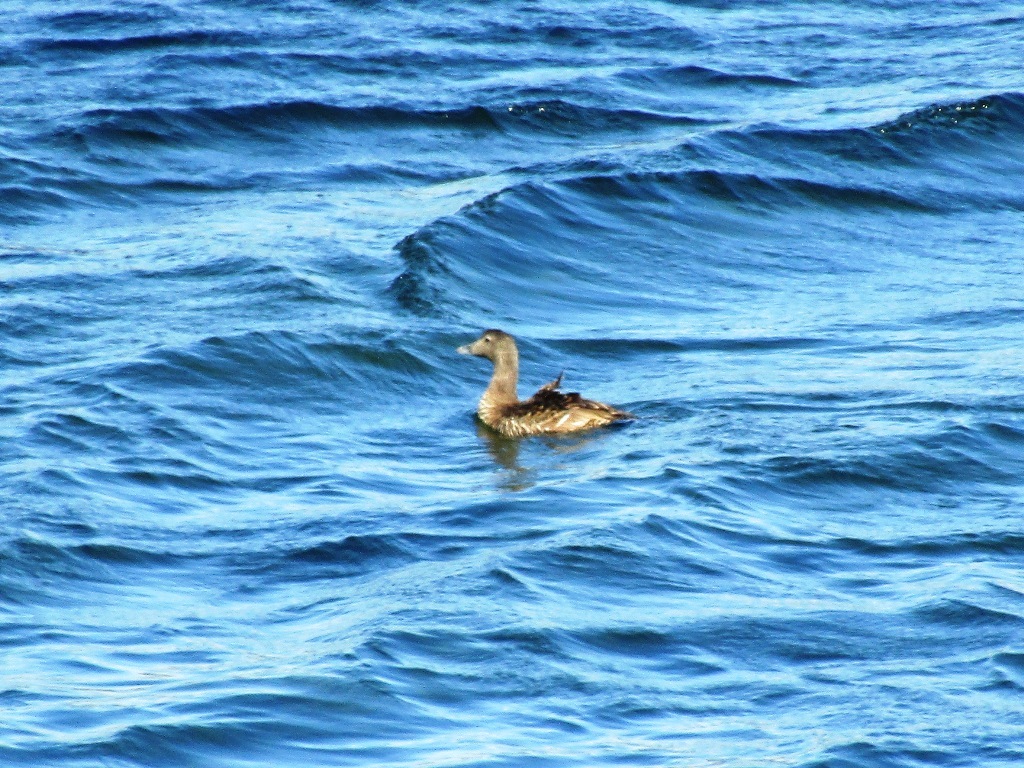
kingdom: Animalia
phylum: Chordata
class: Aves
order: Anseriformes
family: Anatidae
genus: Somateria
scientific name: Somateria mollissima
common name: Common eider
